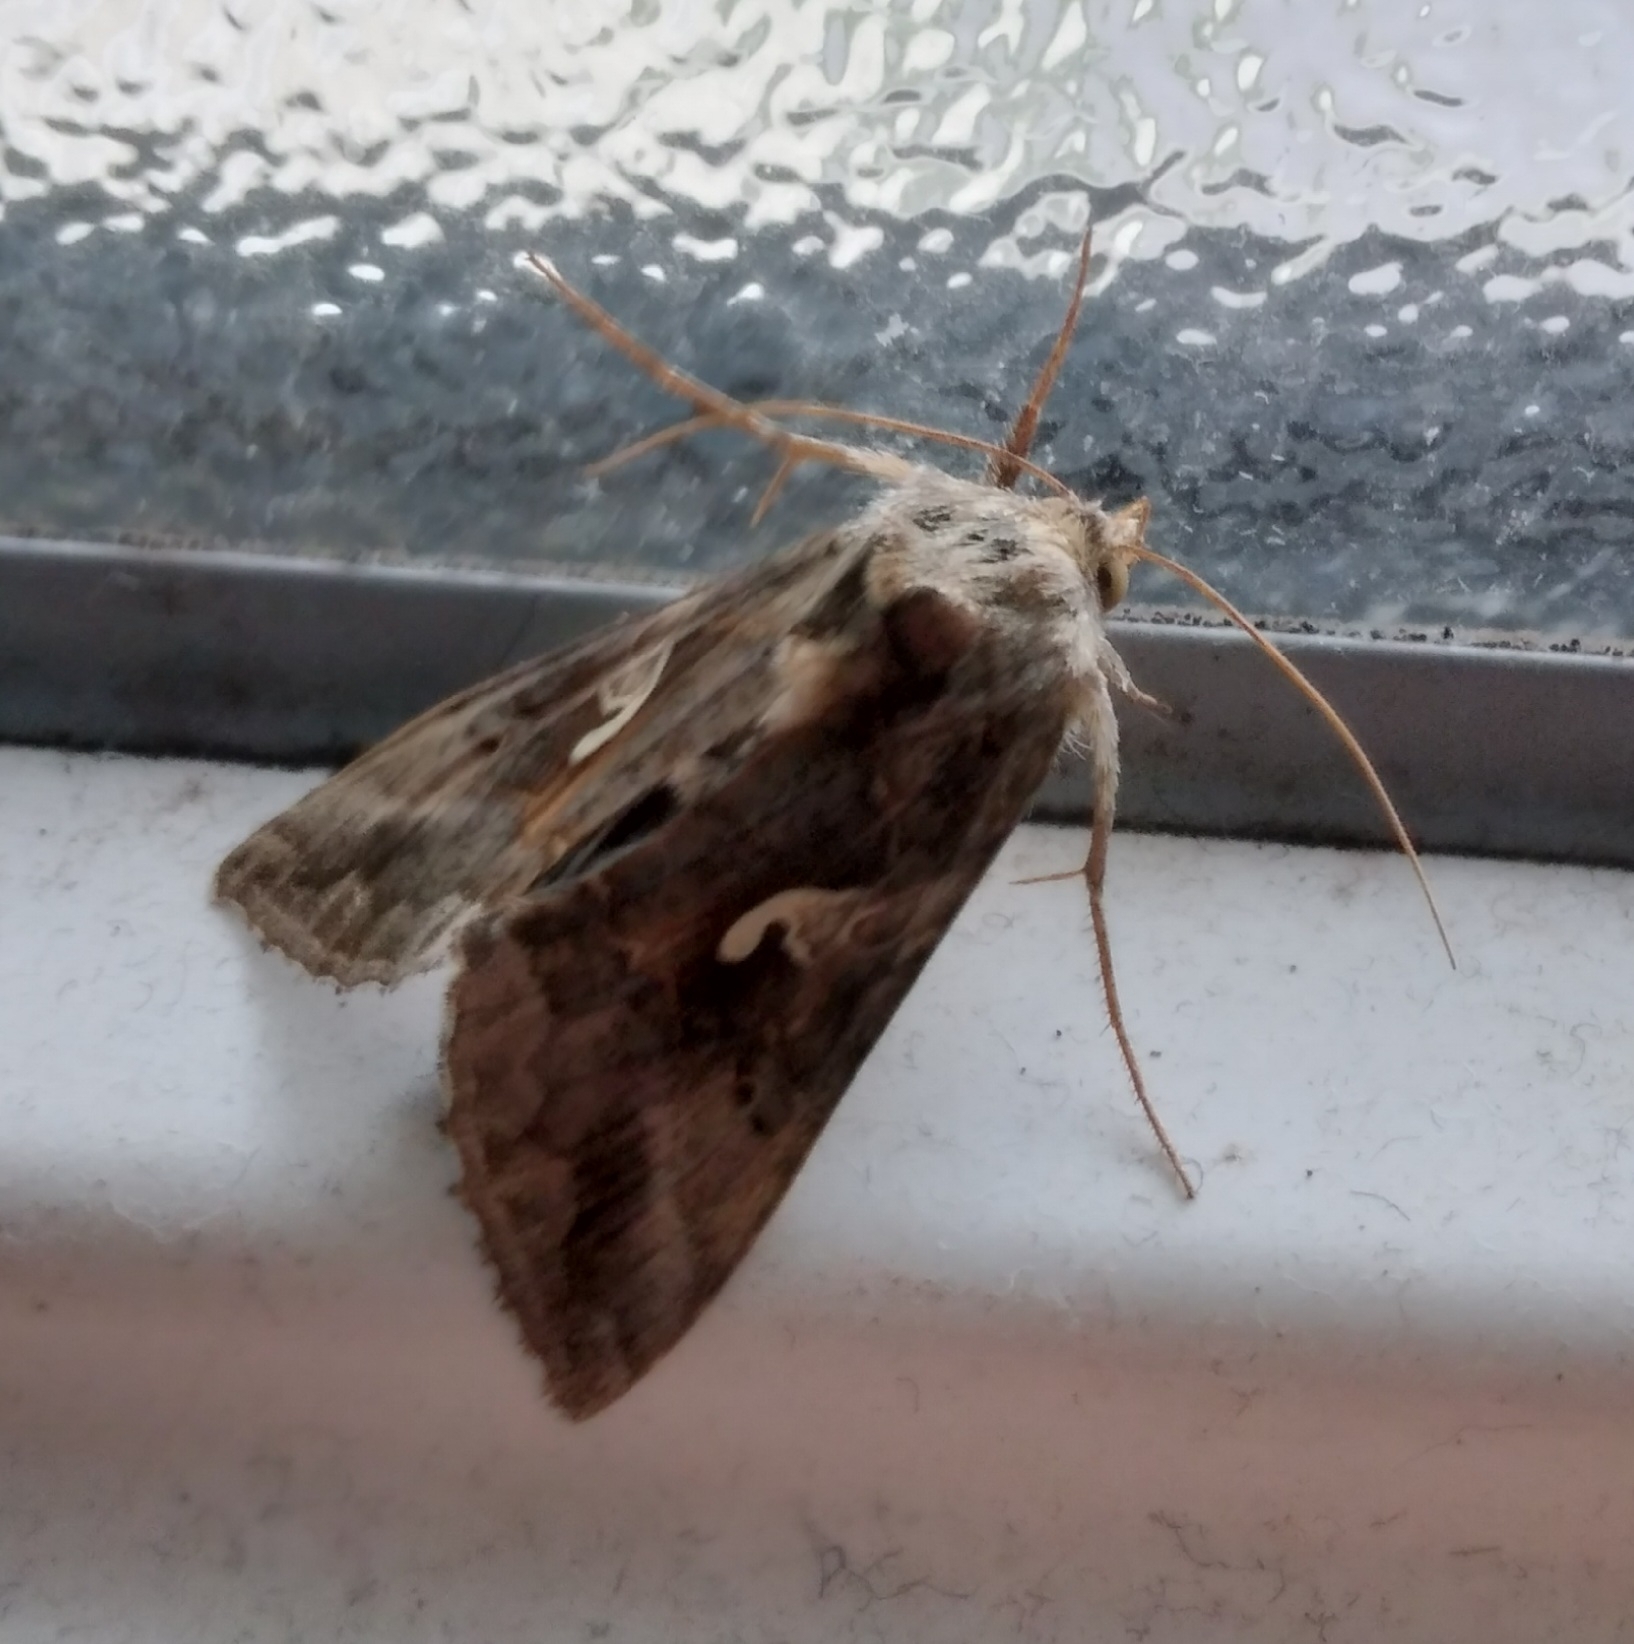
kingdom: Animalia
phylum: Arthropoda
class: Insecta
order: Lepidoptera
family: Noctuidae
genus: Autographa
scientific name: Autographa gamma
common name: Silver y
